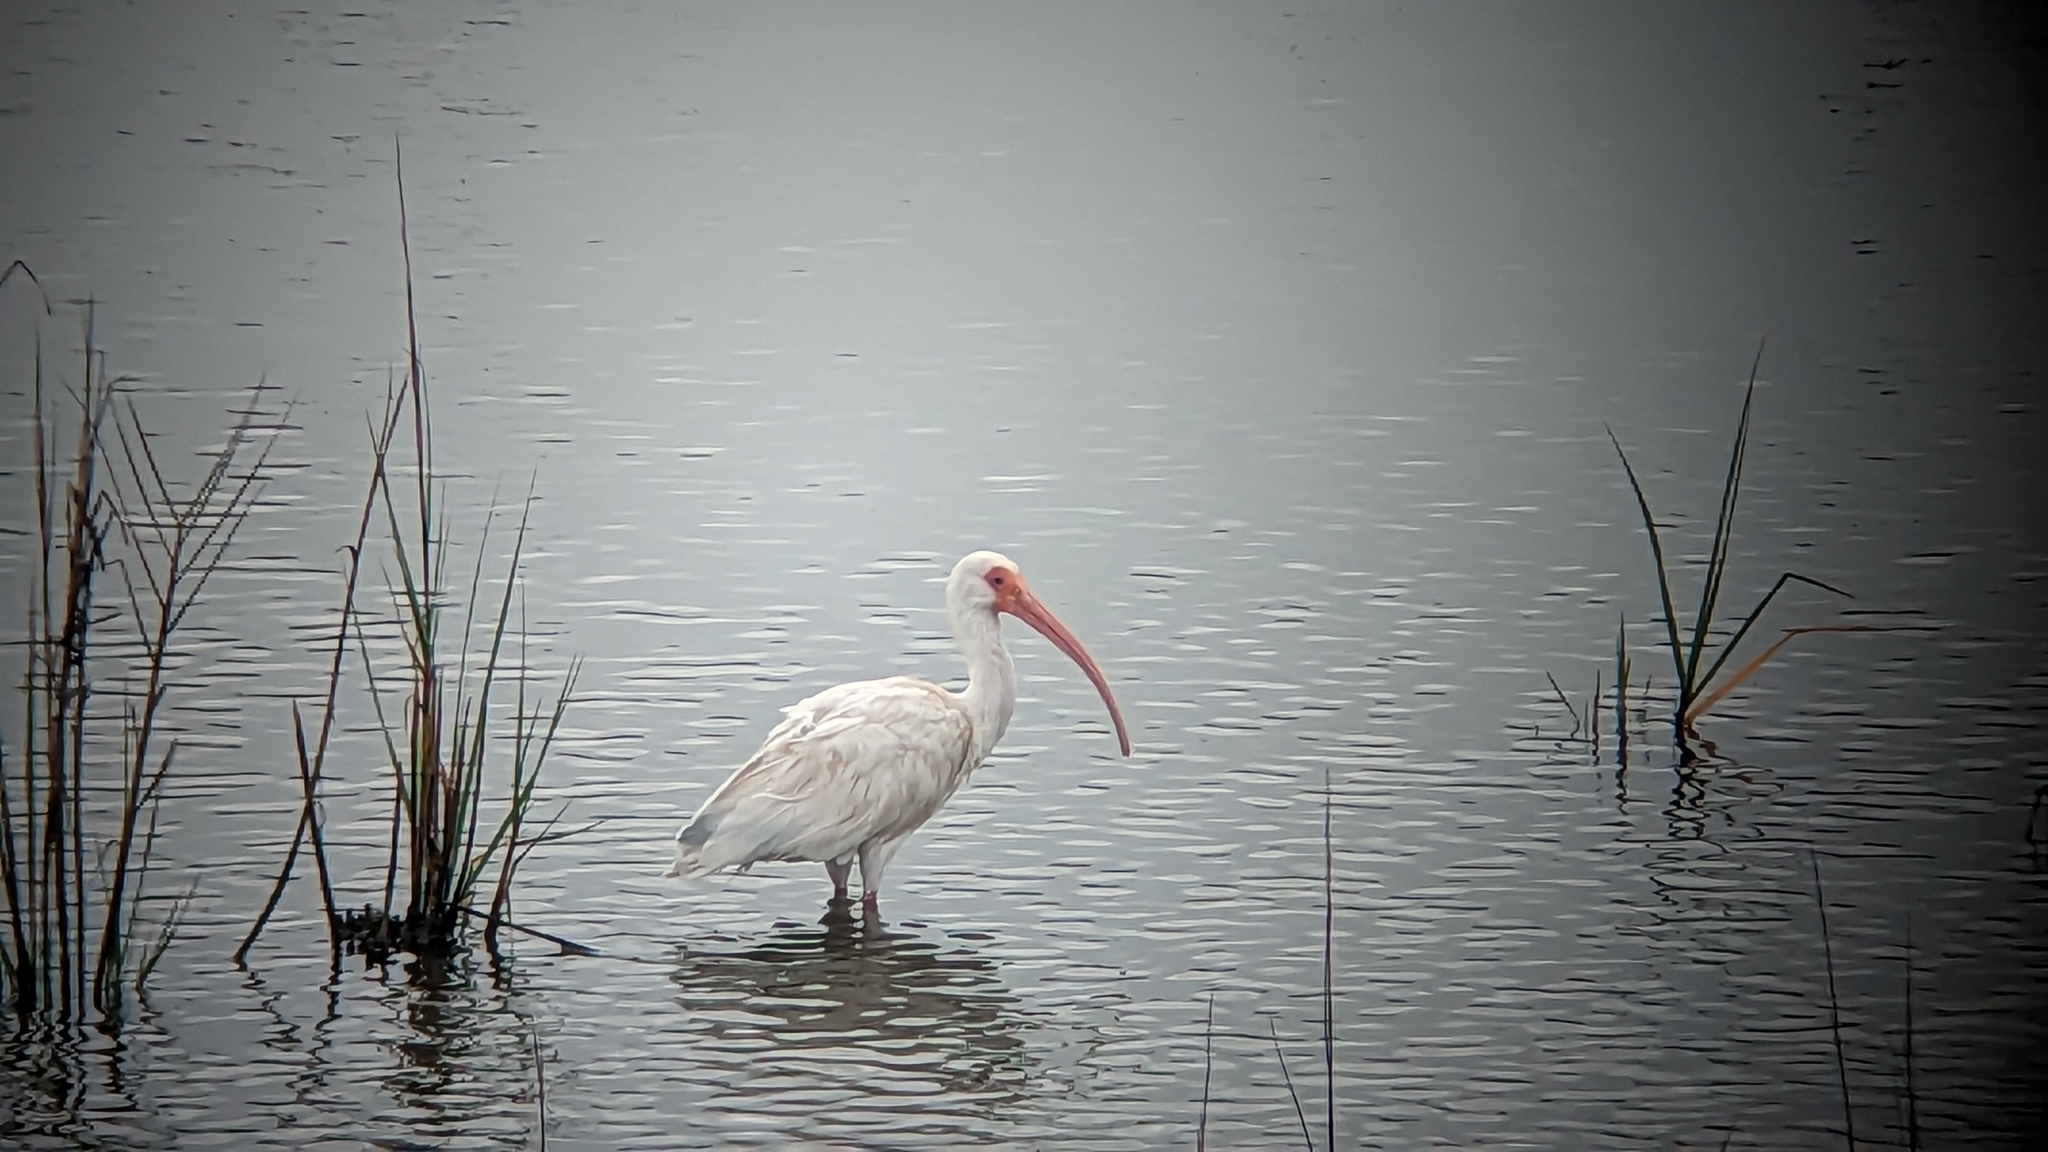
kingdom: Animalia
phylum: Chordata
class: Aves
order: Pelecaniformes
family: Threskiornithidae
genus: Eudocimus
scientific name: Eudocimus albus
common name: White ibis
